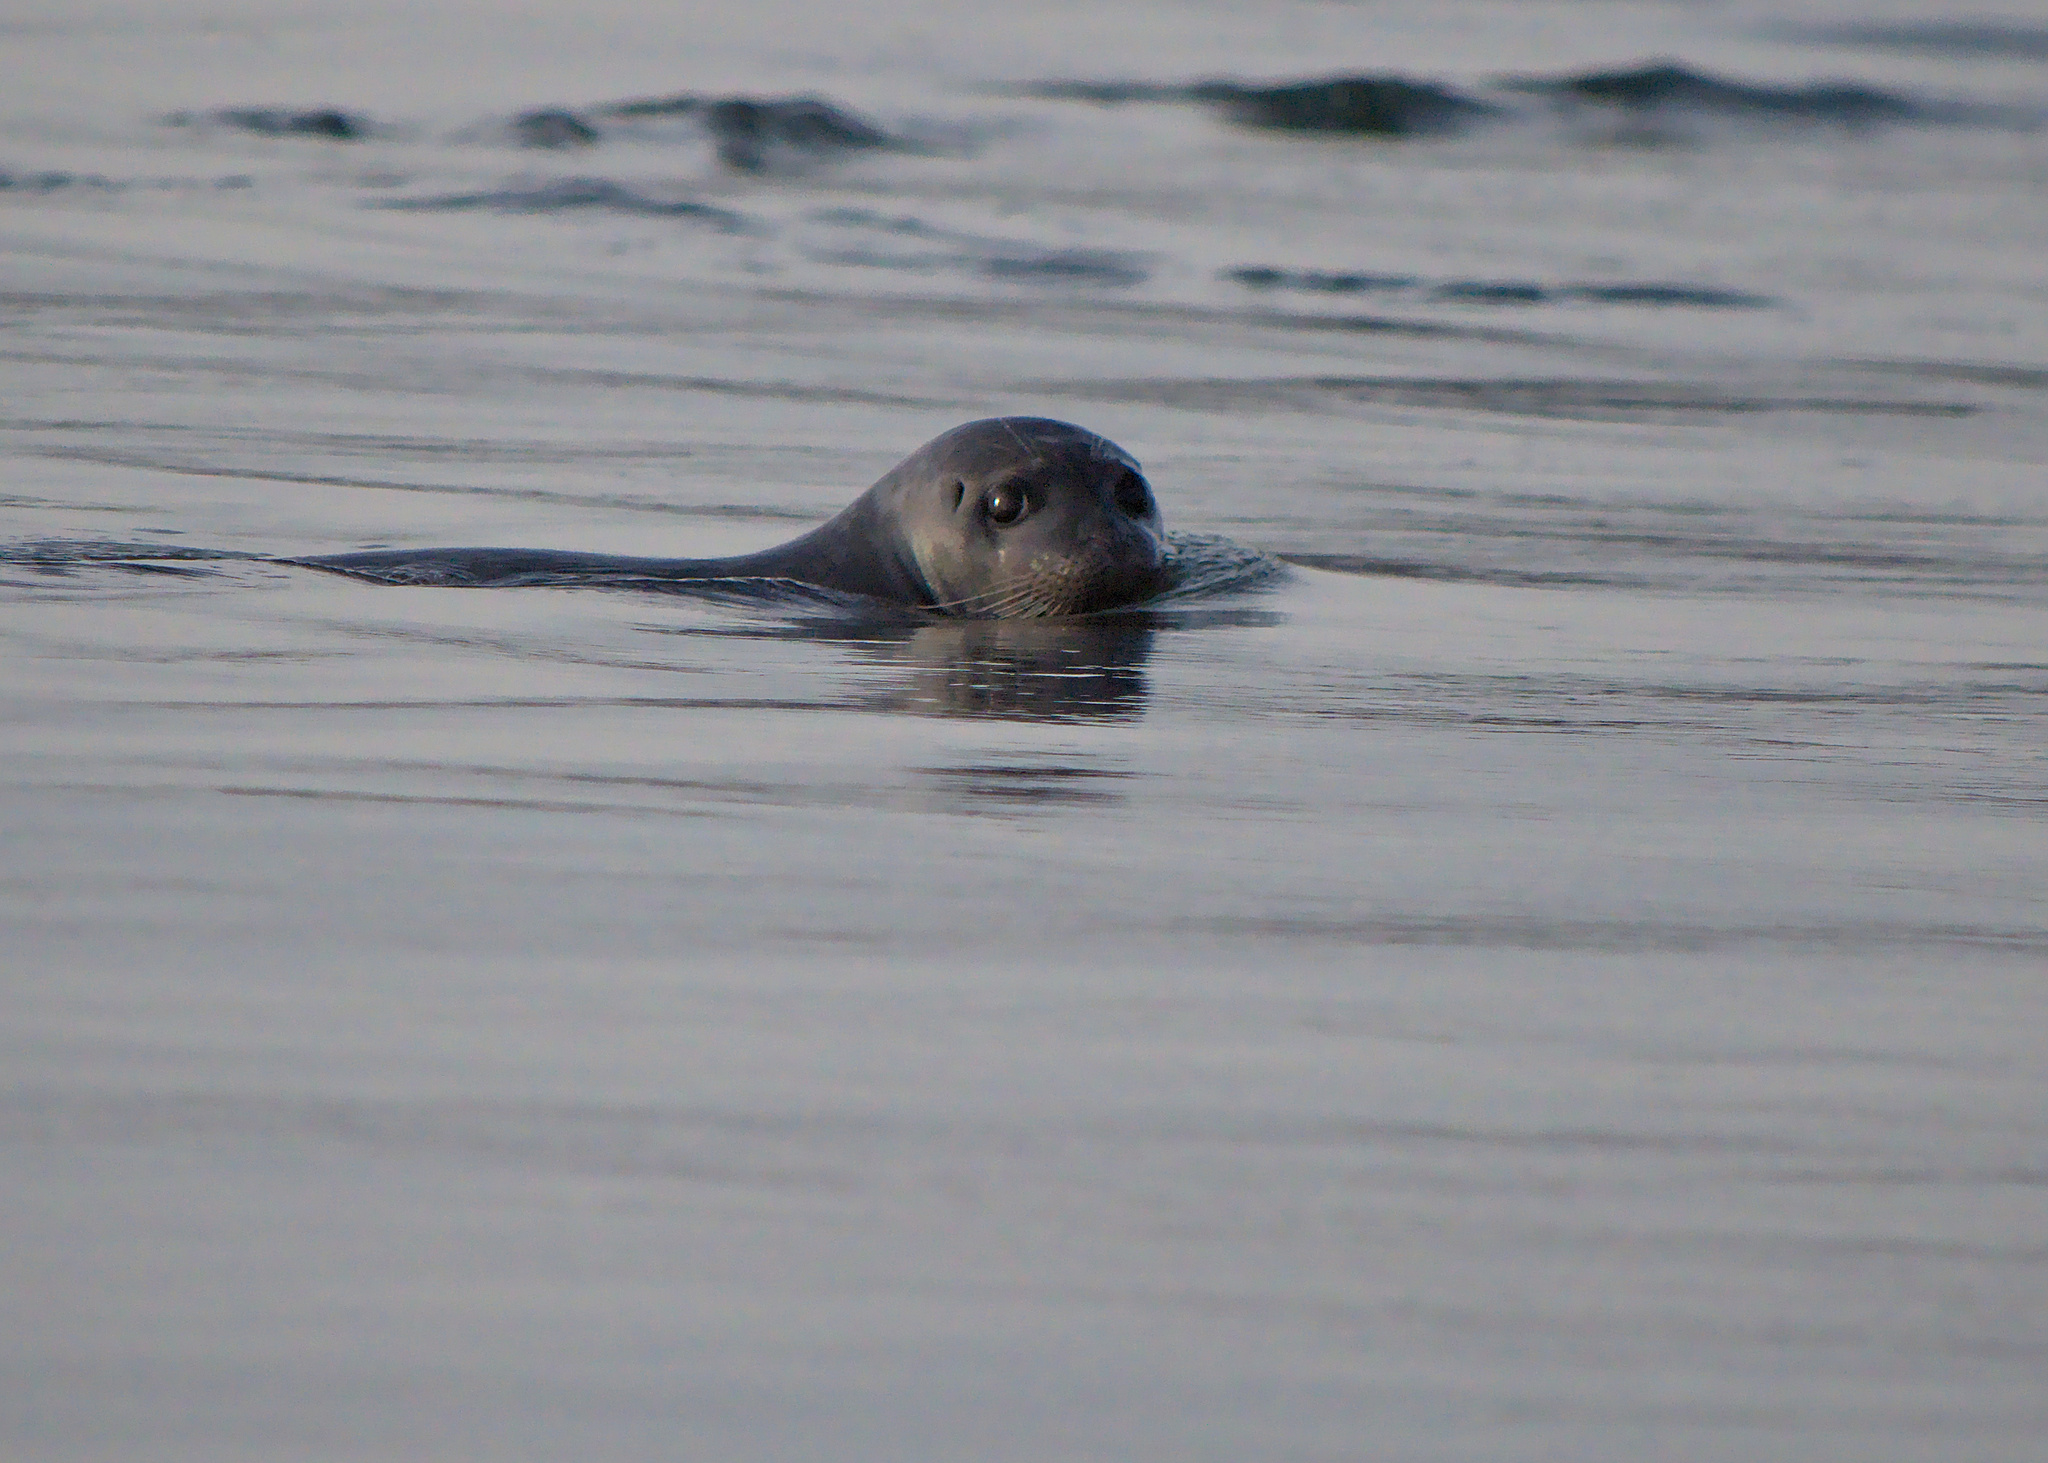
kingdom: Animalia
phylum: Chordata
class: Mammalia
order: Carnivora
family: Phocidae
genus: Phoca
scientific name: Phoca vitulina
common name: Harbor seal
